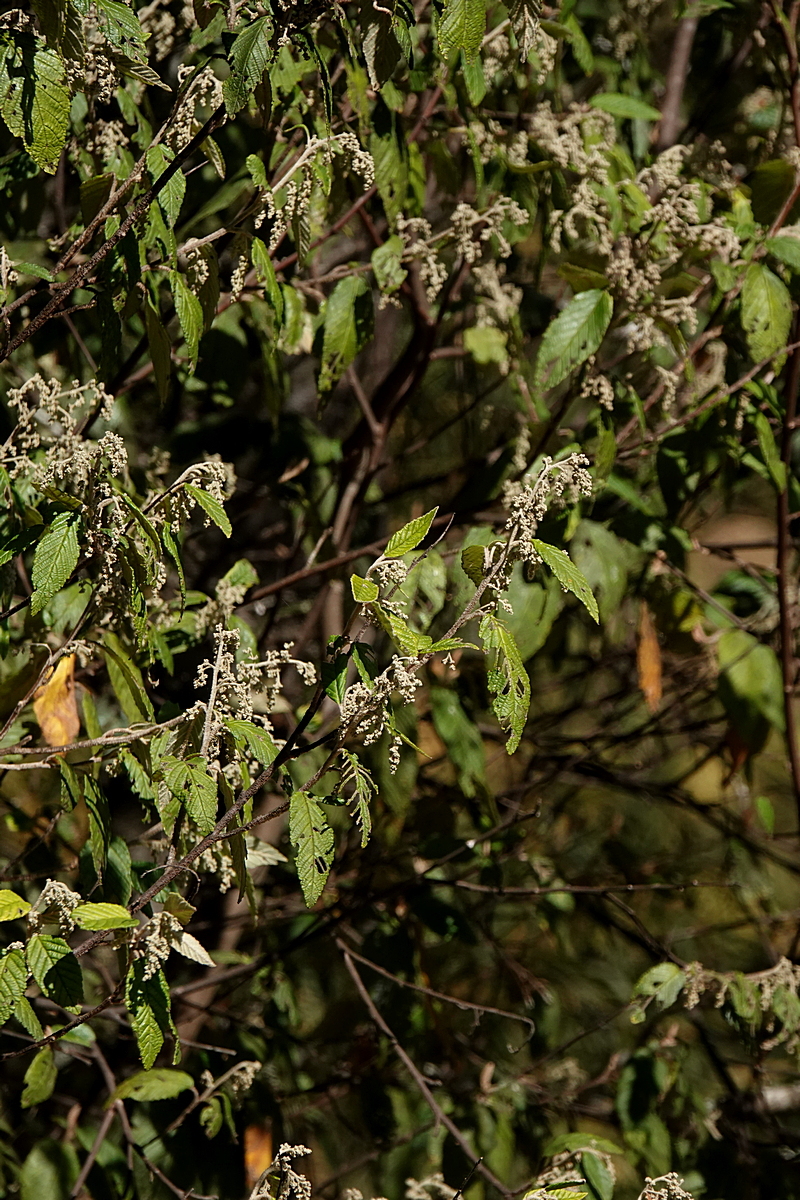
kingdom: Plantae
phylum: Tracheophyta
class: Magnoliopsida
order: Rosales
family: Rhamnaceae
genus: Pomaderris
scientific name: Pomaderris aspera
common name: Hazel pomaderris
